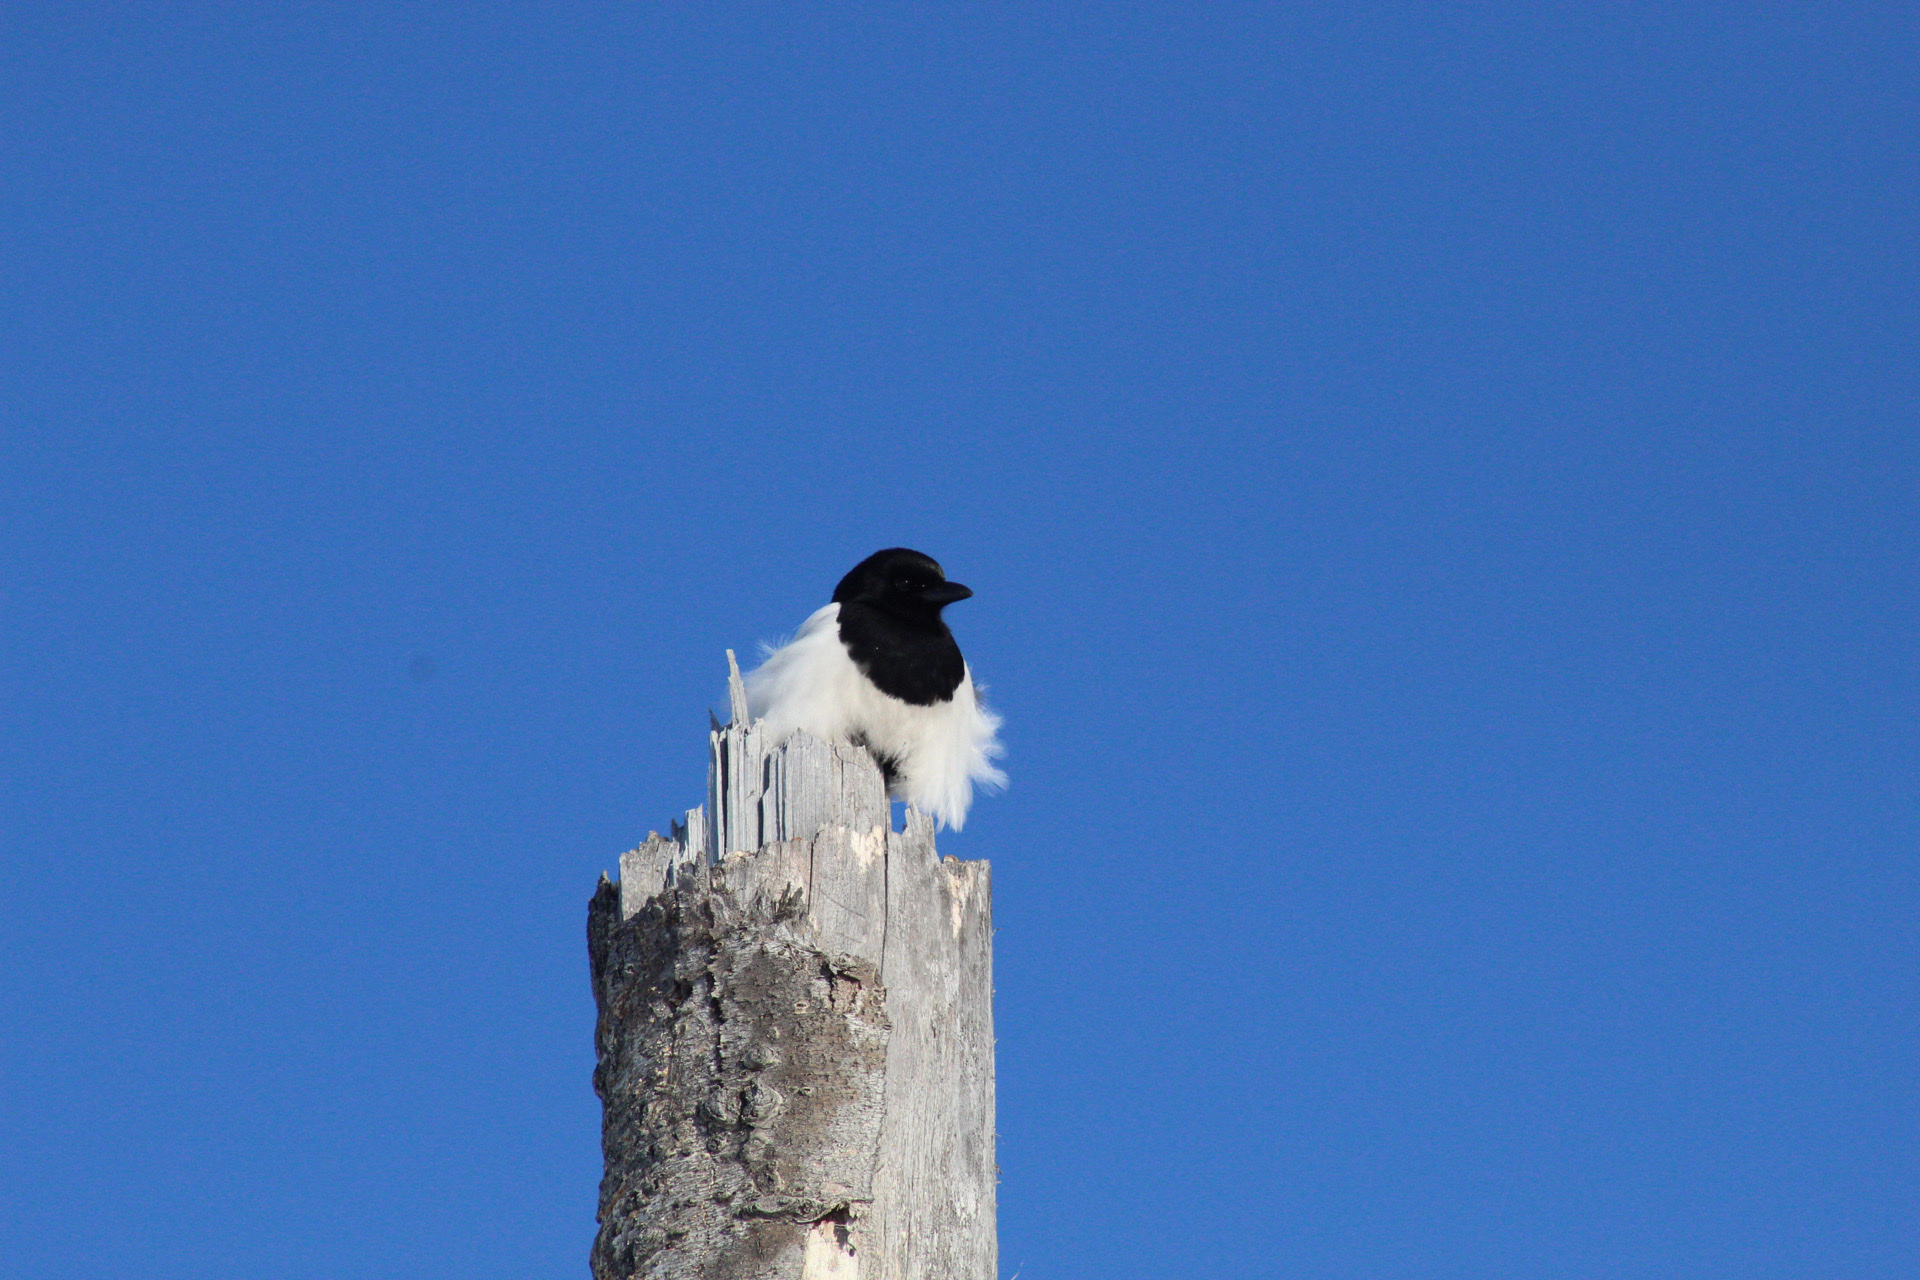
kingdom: Animalia
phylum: Chordata
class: Aves
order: Passeriformes
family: Corvidae
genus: Pica
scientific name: Pica hudsonia
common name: Black-billed magpie
